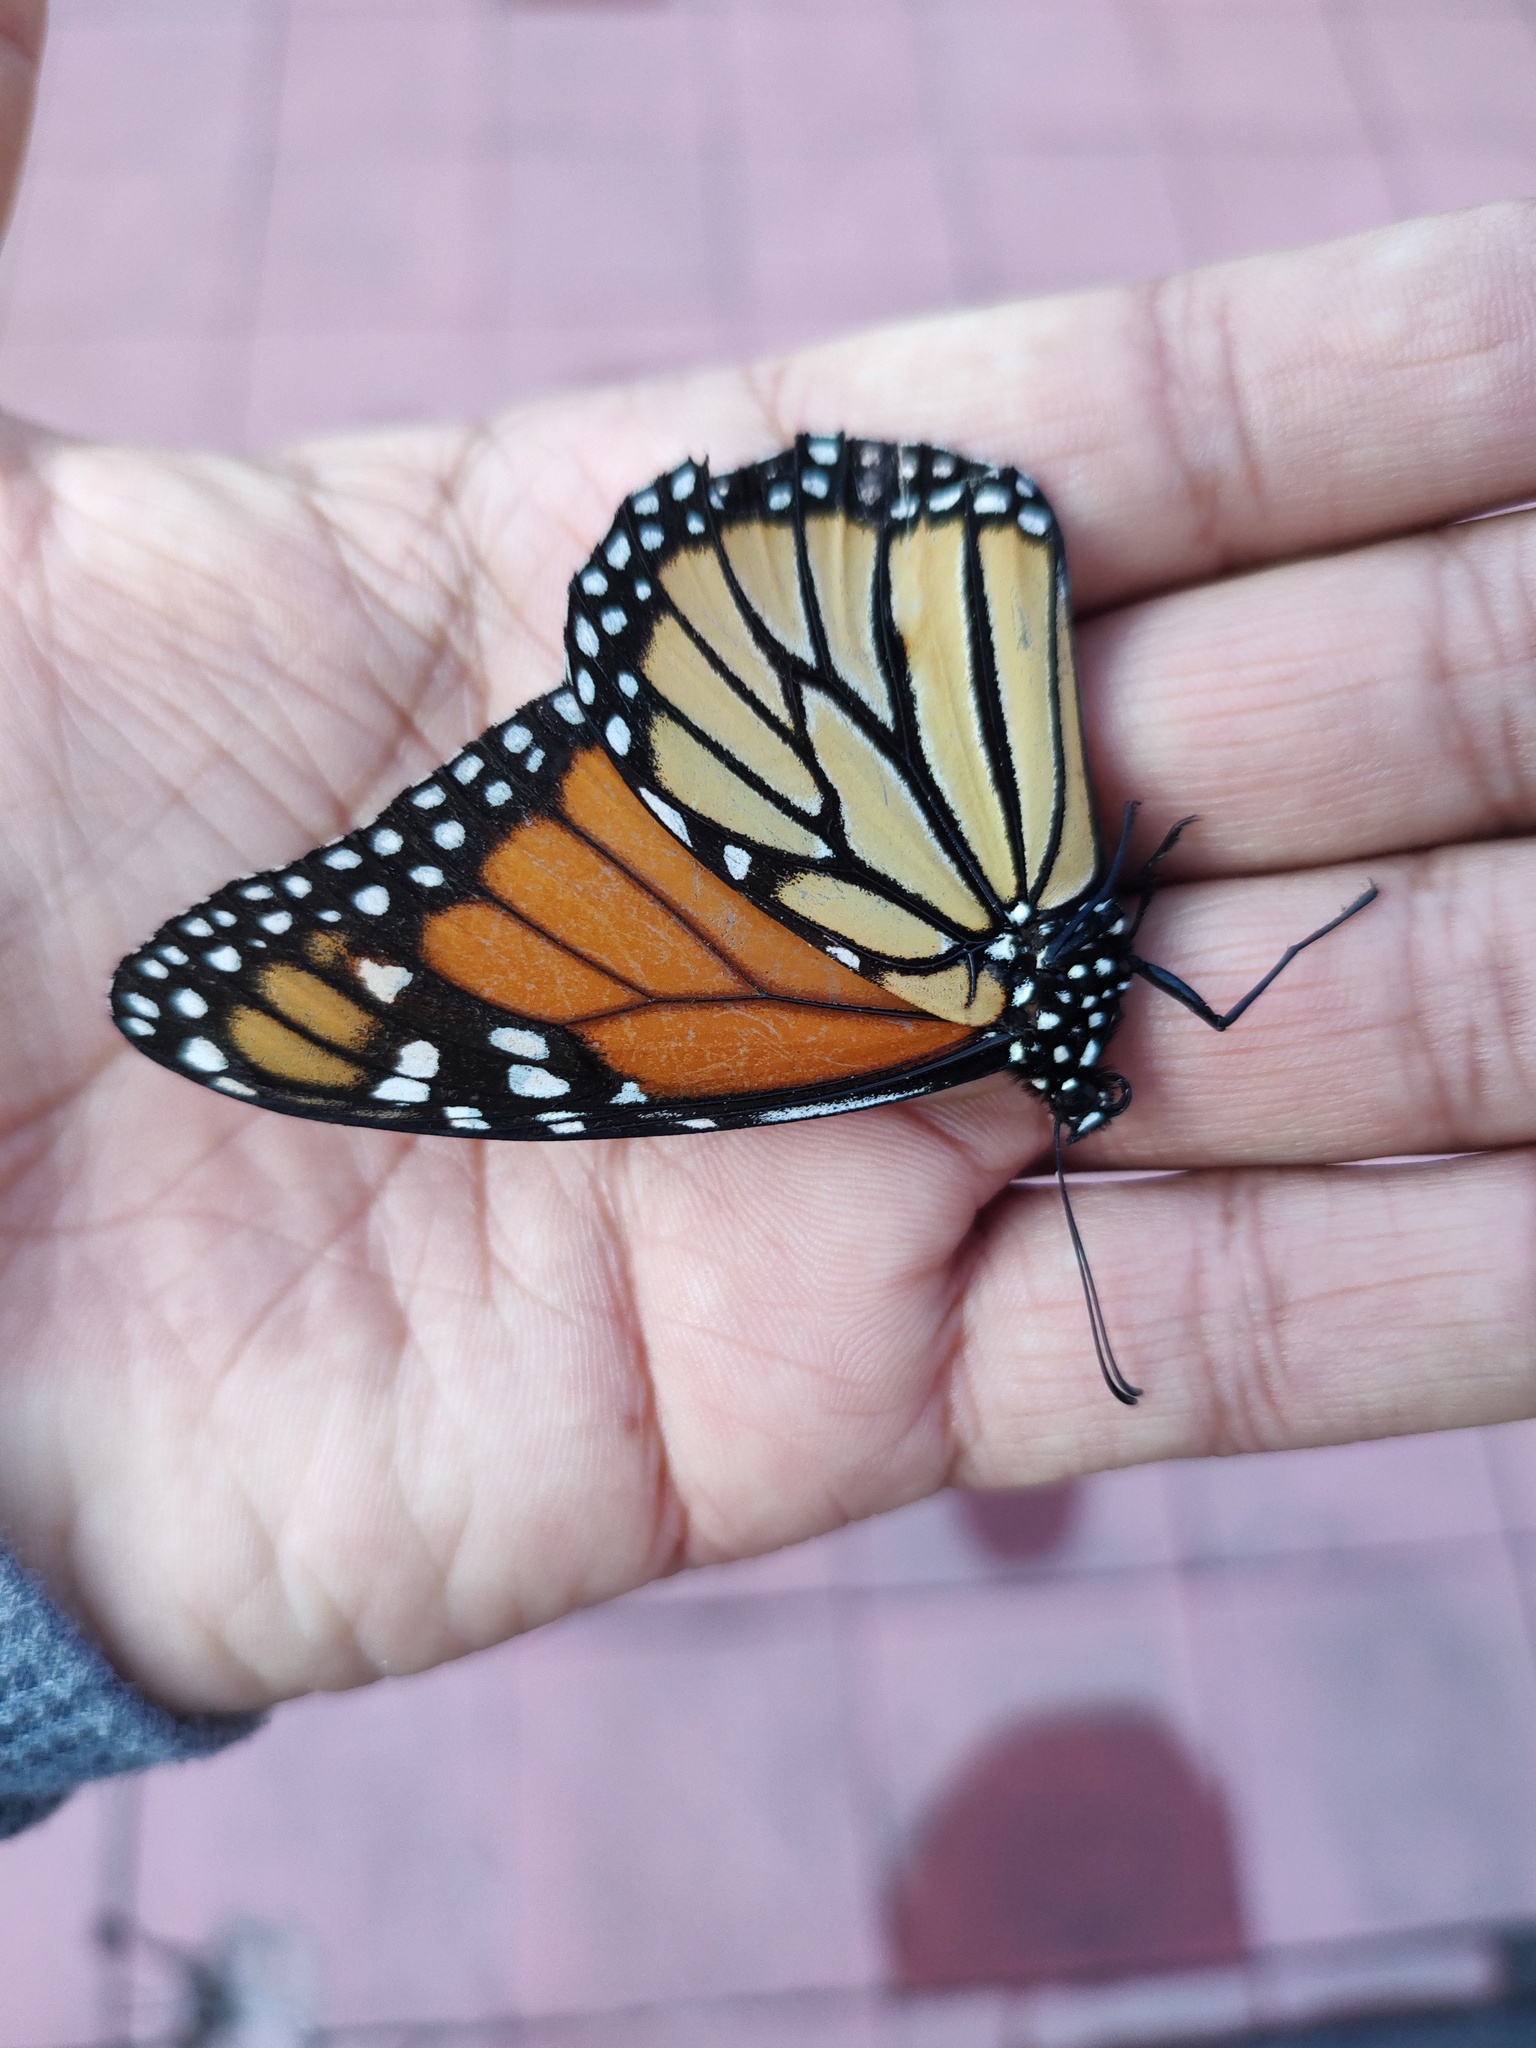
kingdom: Animalia
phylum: Arthropoda
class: Insecta
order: Lepidoptera
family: Nymphalidae
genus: Danaus
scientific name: Danaus plexippus
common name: Monarch
